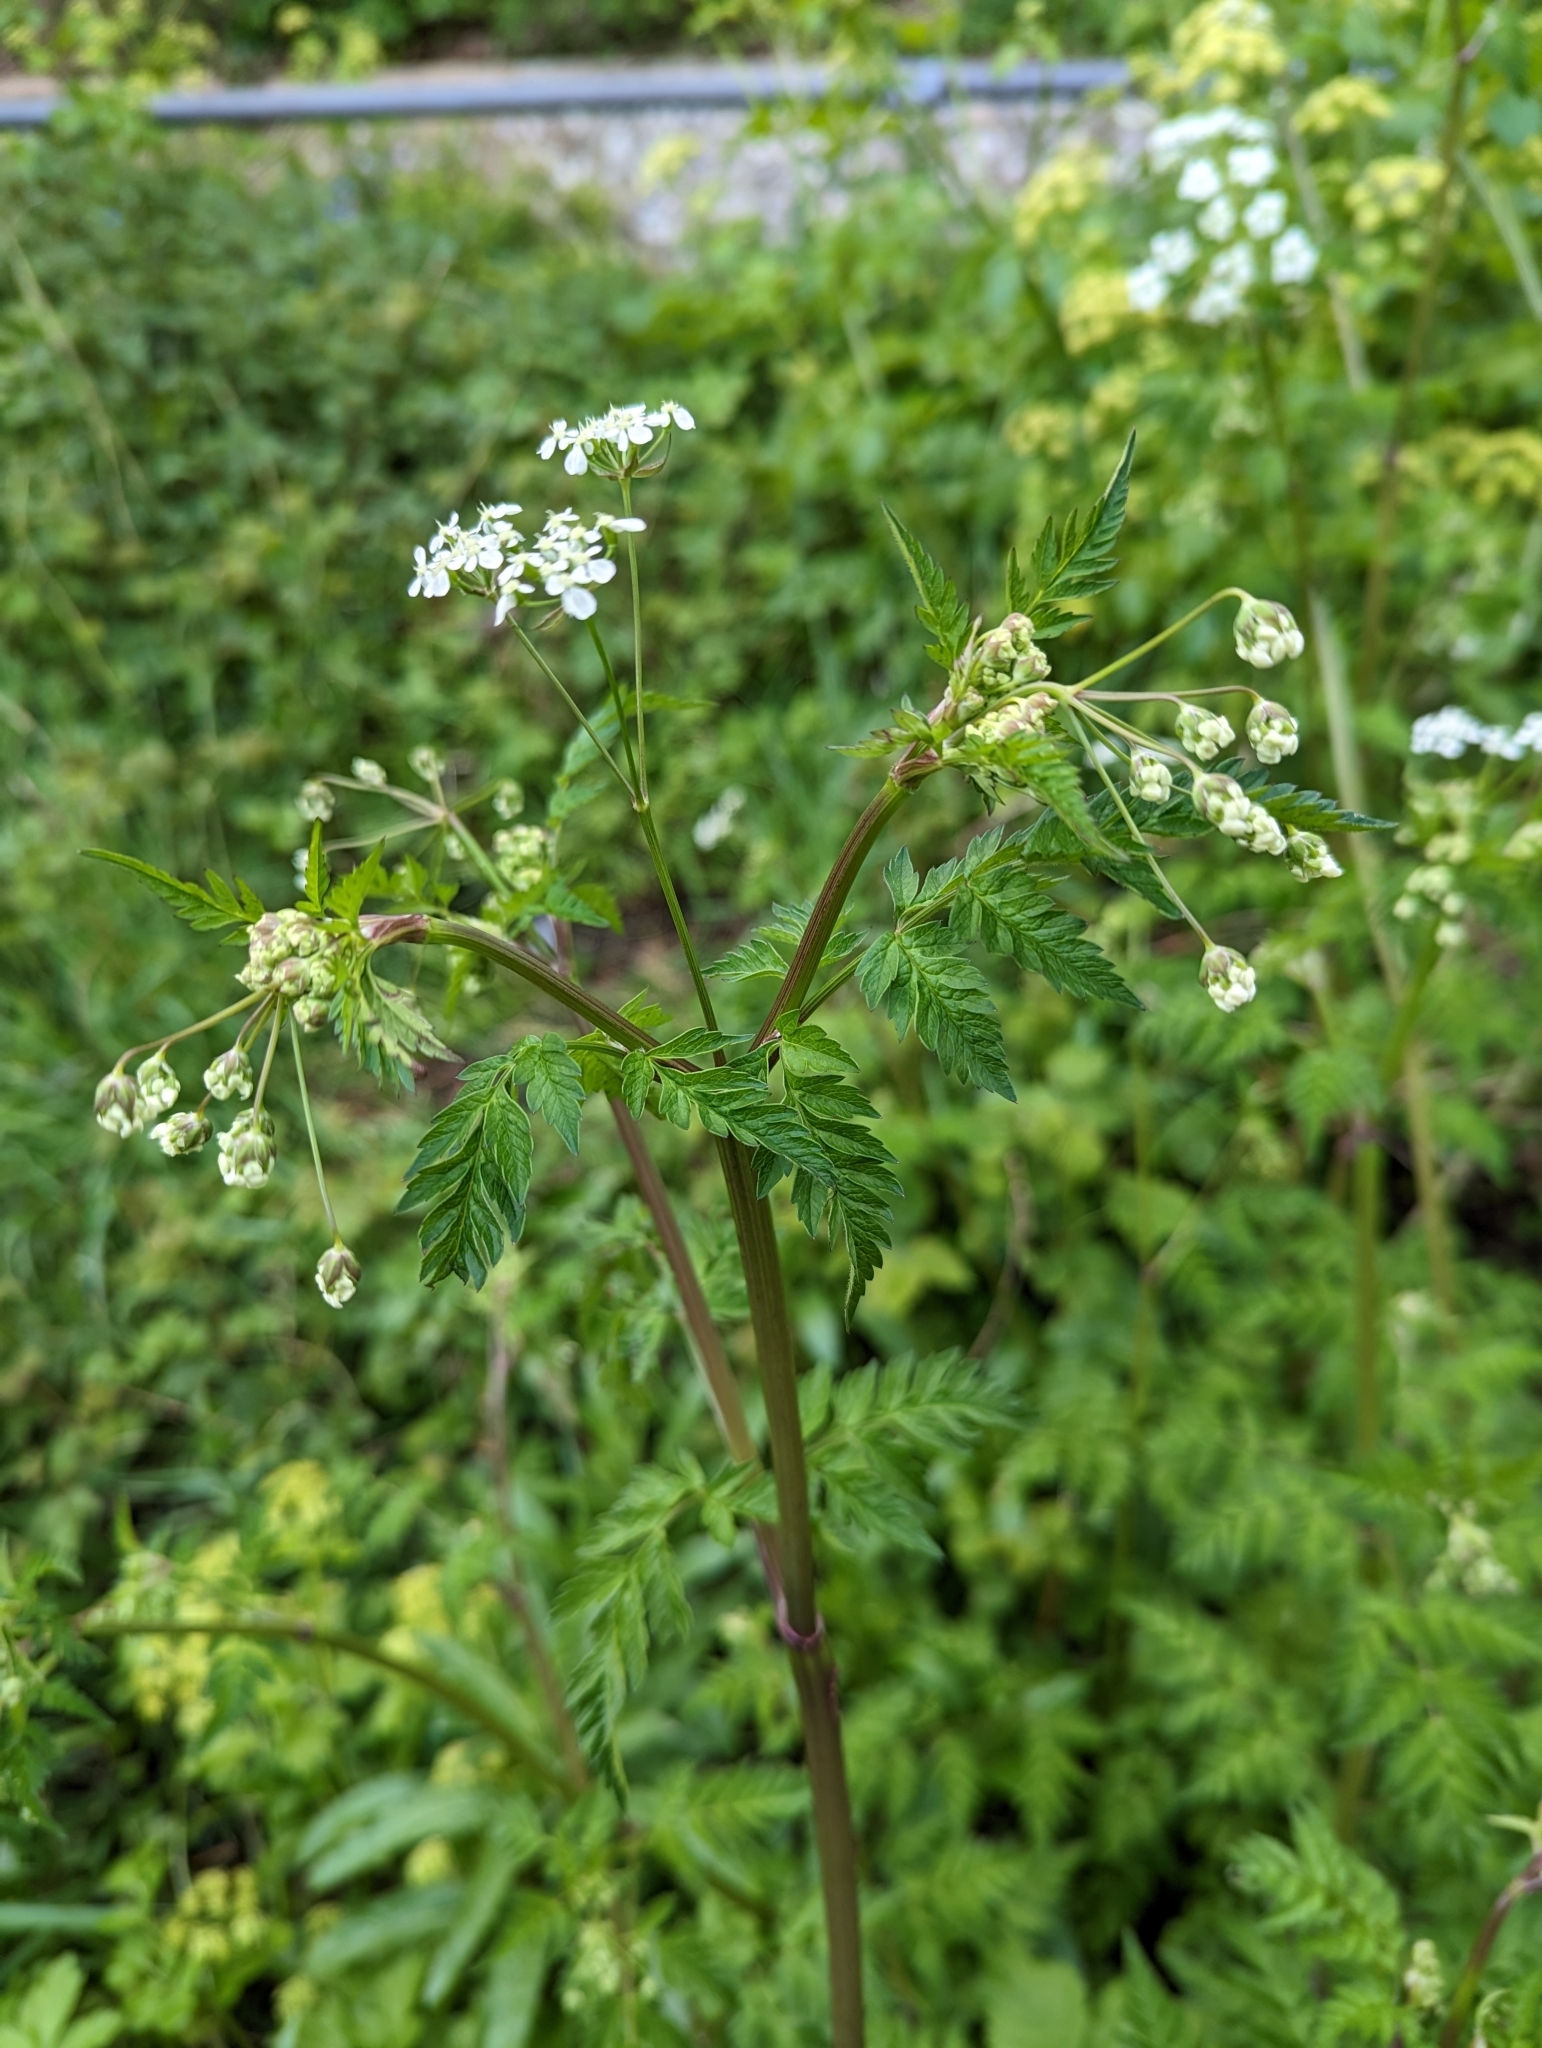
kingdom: Plantae
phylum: Tracheophyta
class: Magnoliopsida
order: Apiales
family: Apiaceae
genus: Anthriscus
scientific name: Anthriscus sylvestris
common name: Cow parsley
